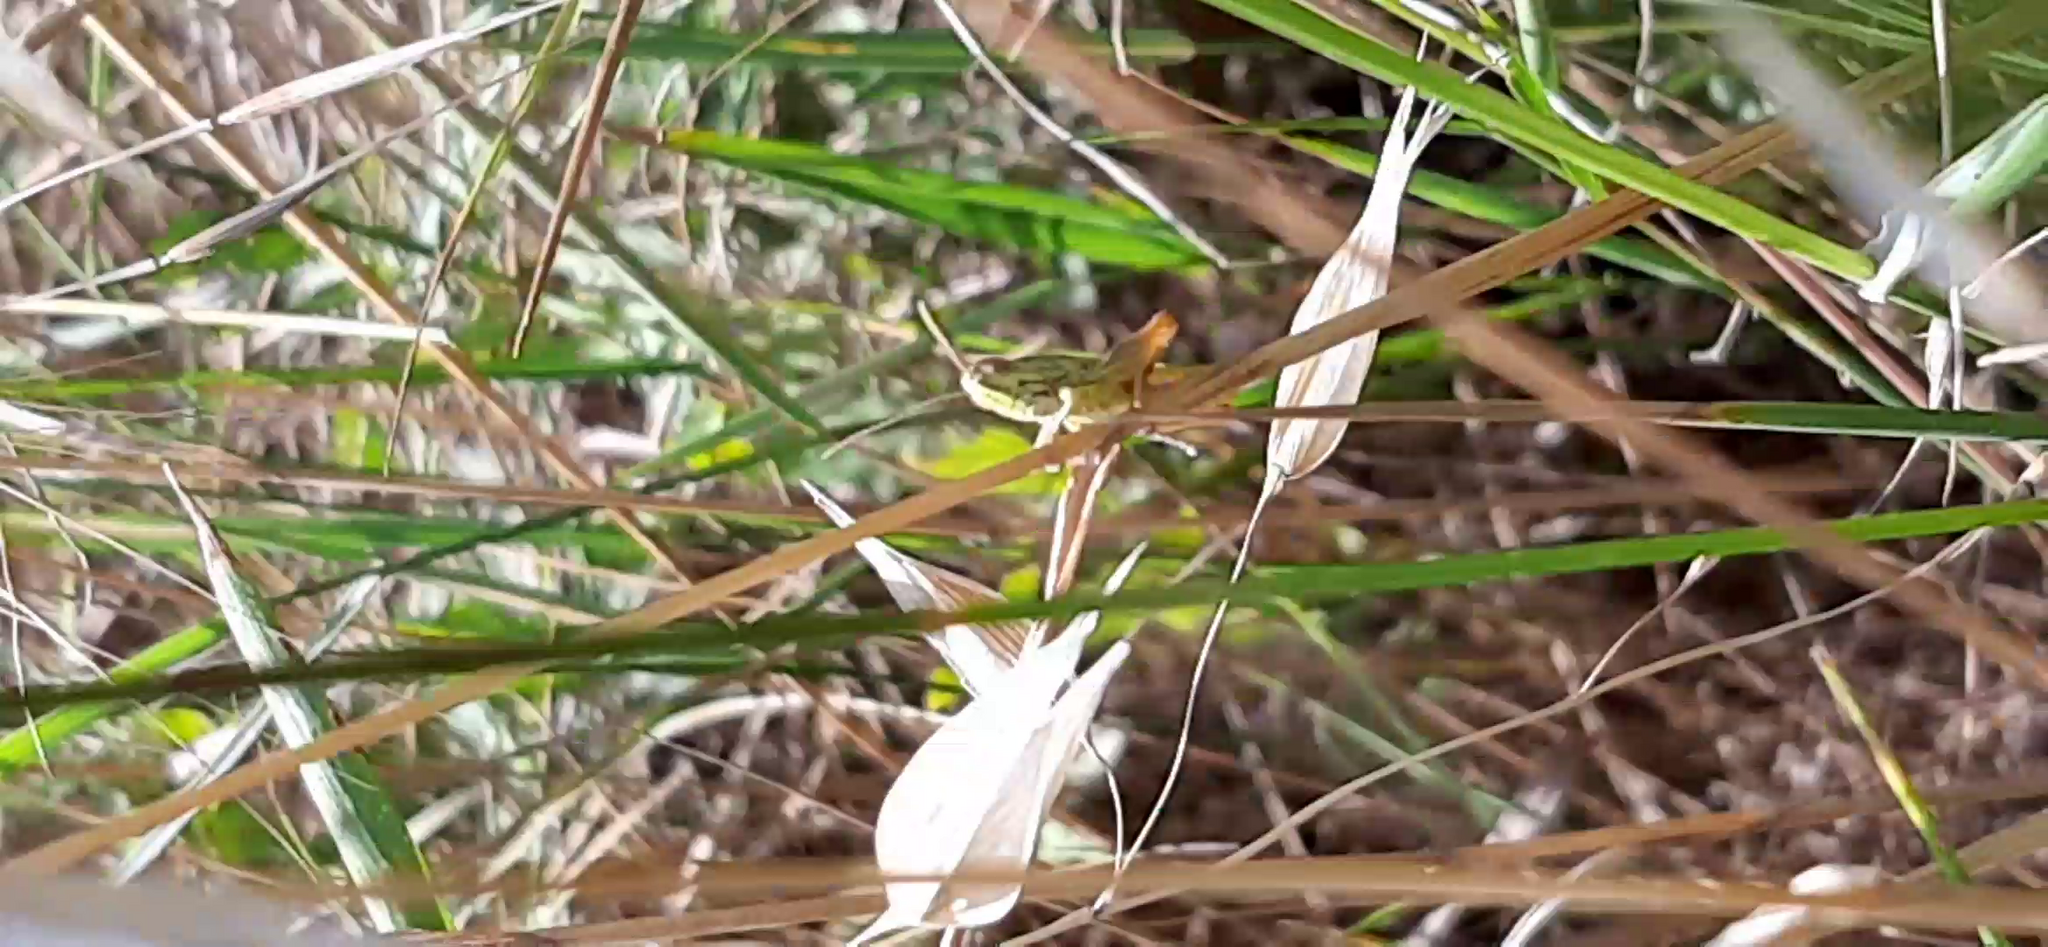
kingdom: Animalia
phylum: Arthropoda
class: Insecta
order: Orthoptera
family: Acrididae
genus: Euchorthippus
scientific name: Euchorthippus declivus
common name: Common straw grasshopper
